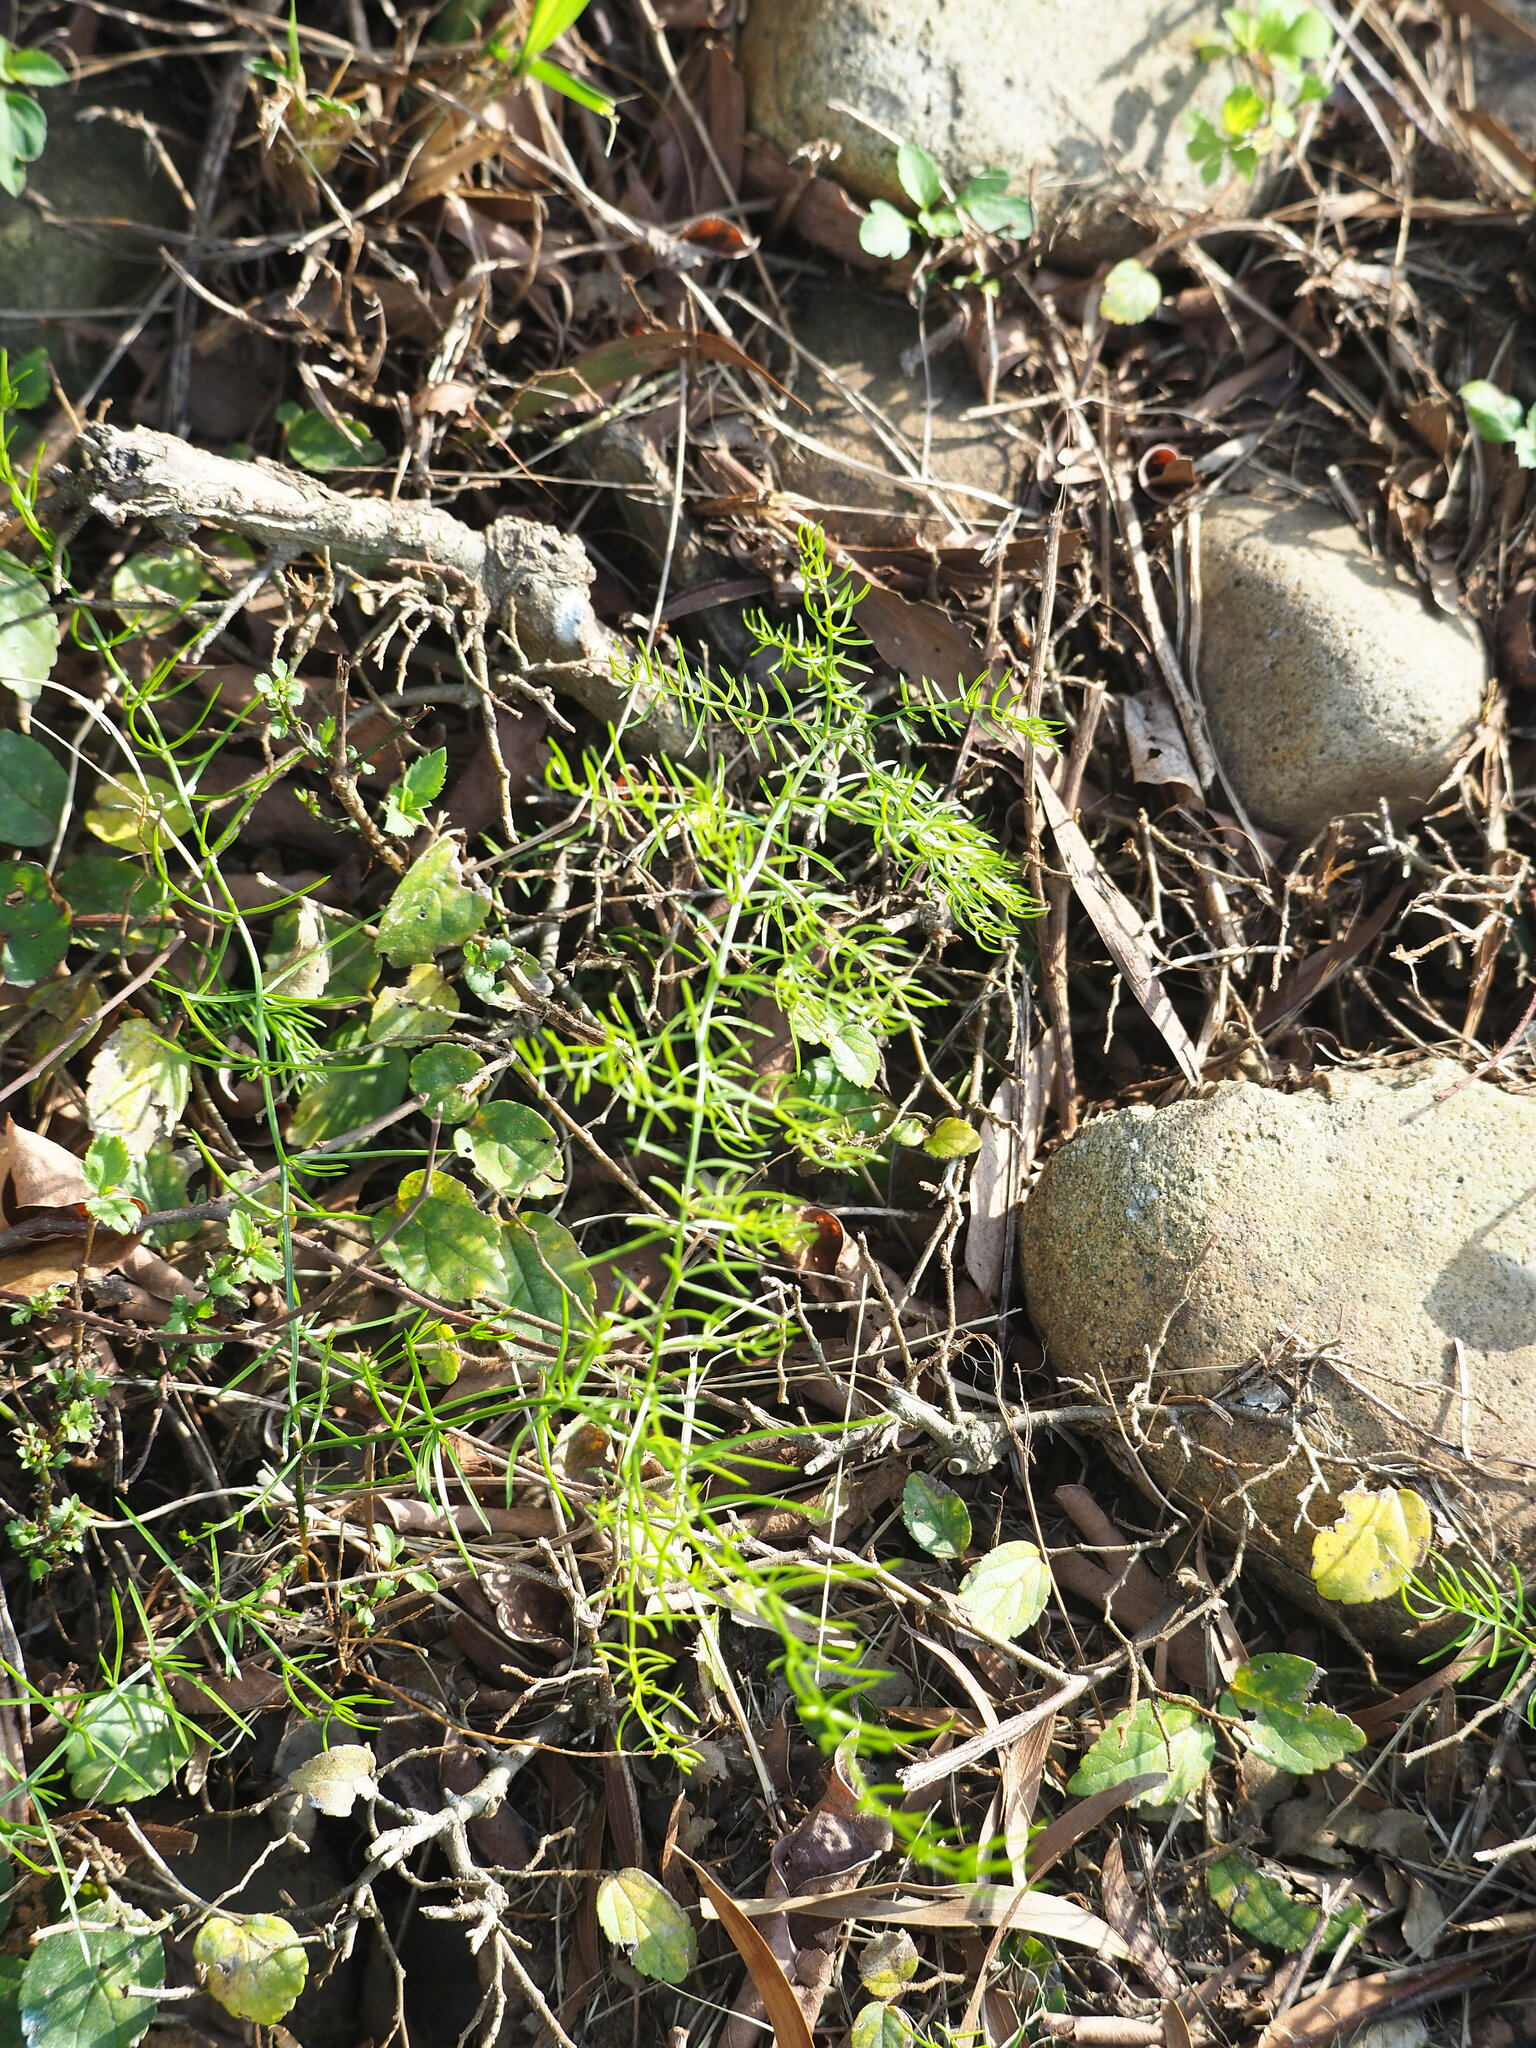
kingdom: Plantae
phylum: Tracheophyta
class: Liliopsida
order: Asparagales
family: Asparagaceae
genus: Asparagus
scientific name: Asparagus cochinchinensis
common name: Chinese asparagus
